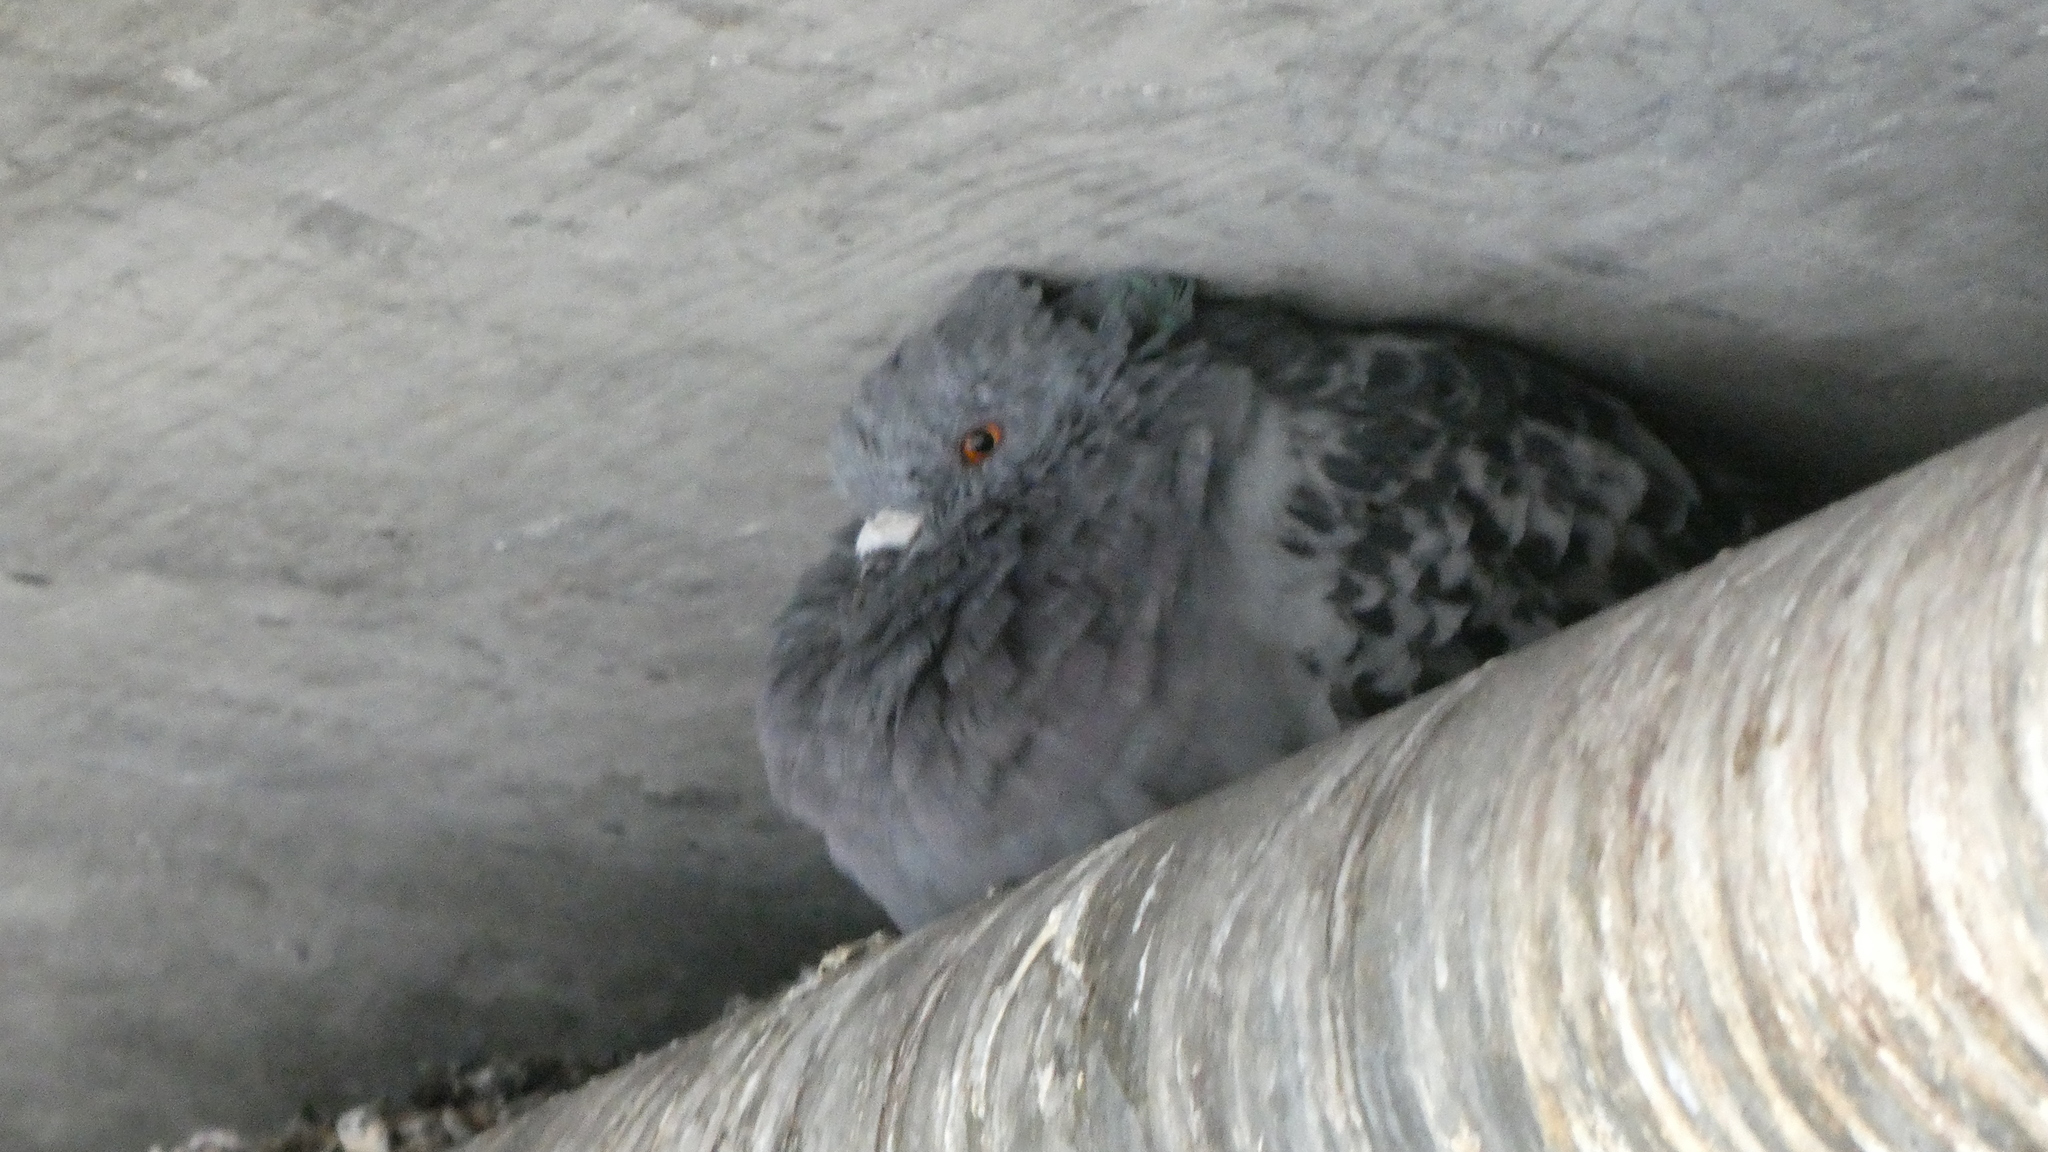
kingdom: Animalia
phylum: Chordata
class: Aves
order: Columbiformes
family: Columbidae
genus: Columba
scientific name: Columba livia
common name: Rock pigeon
